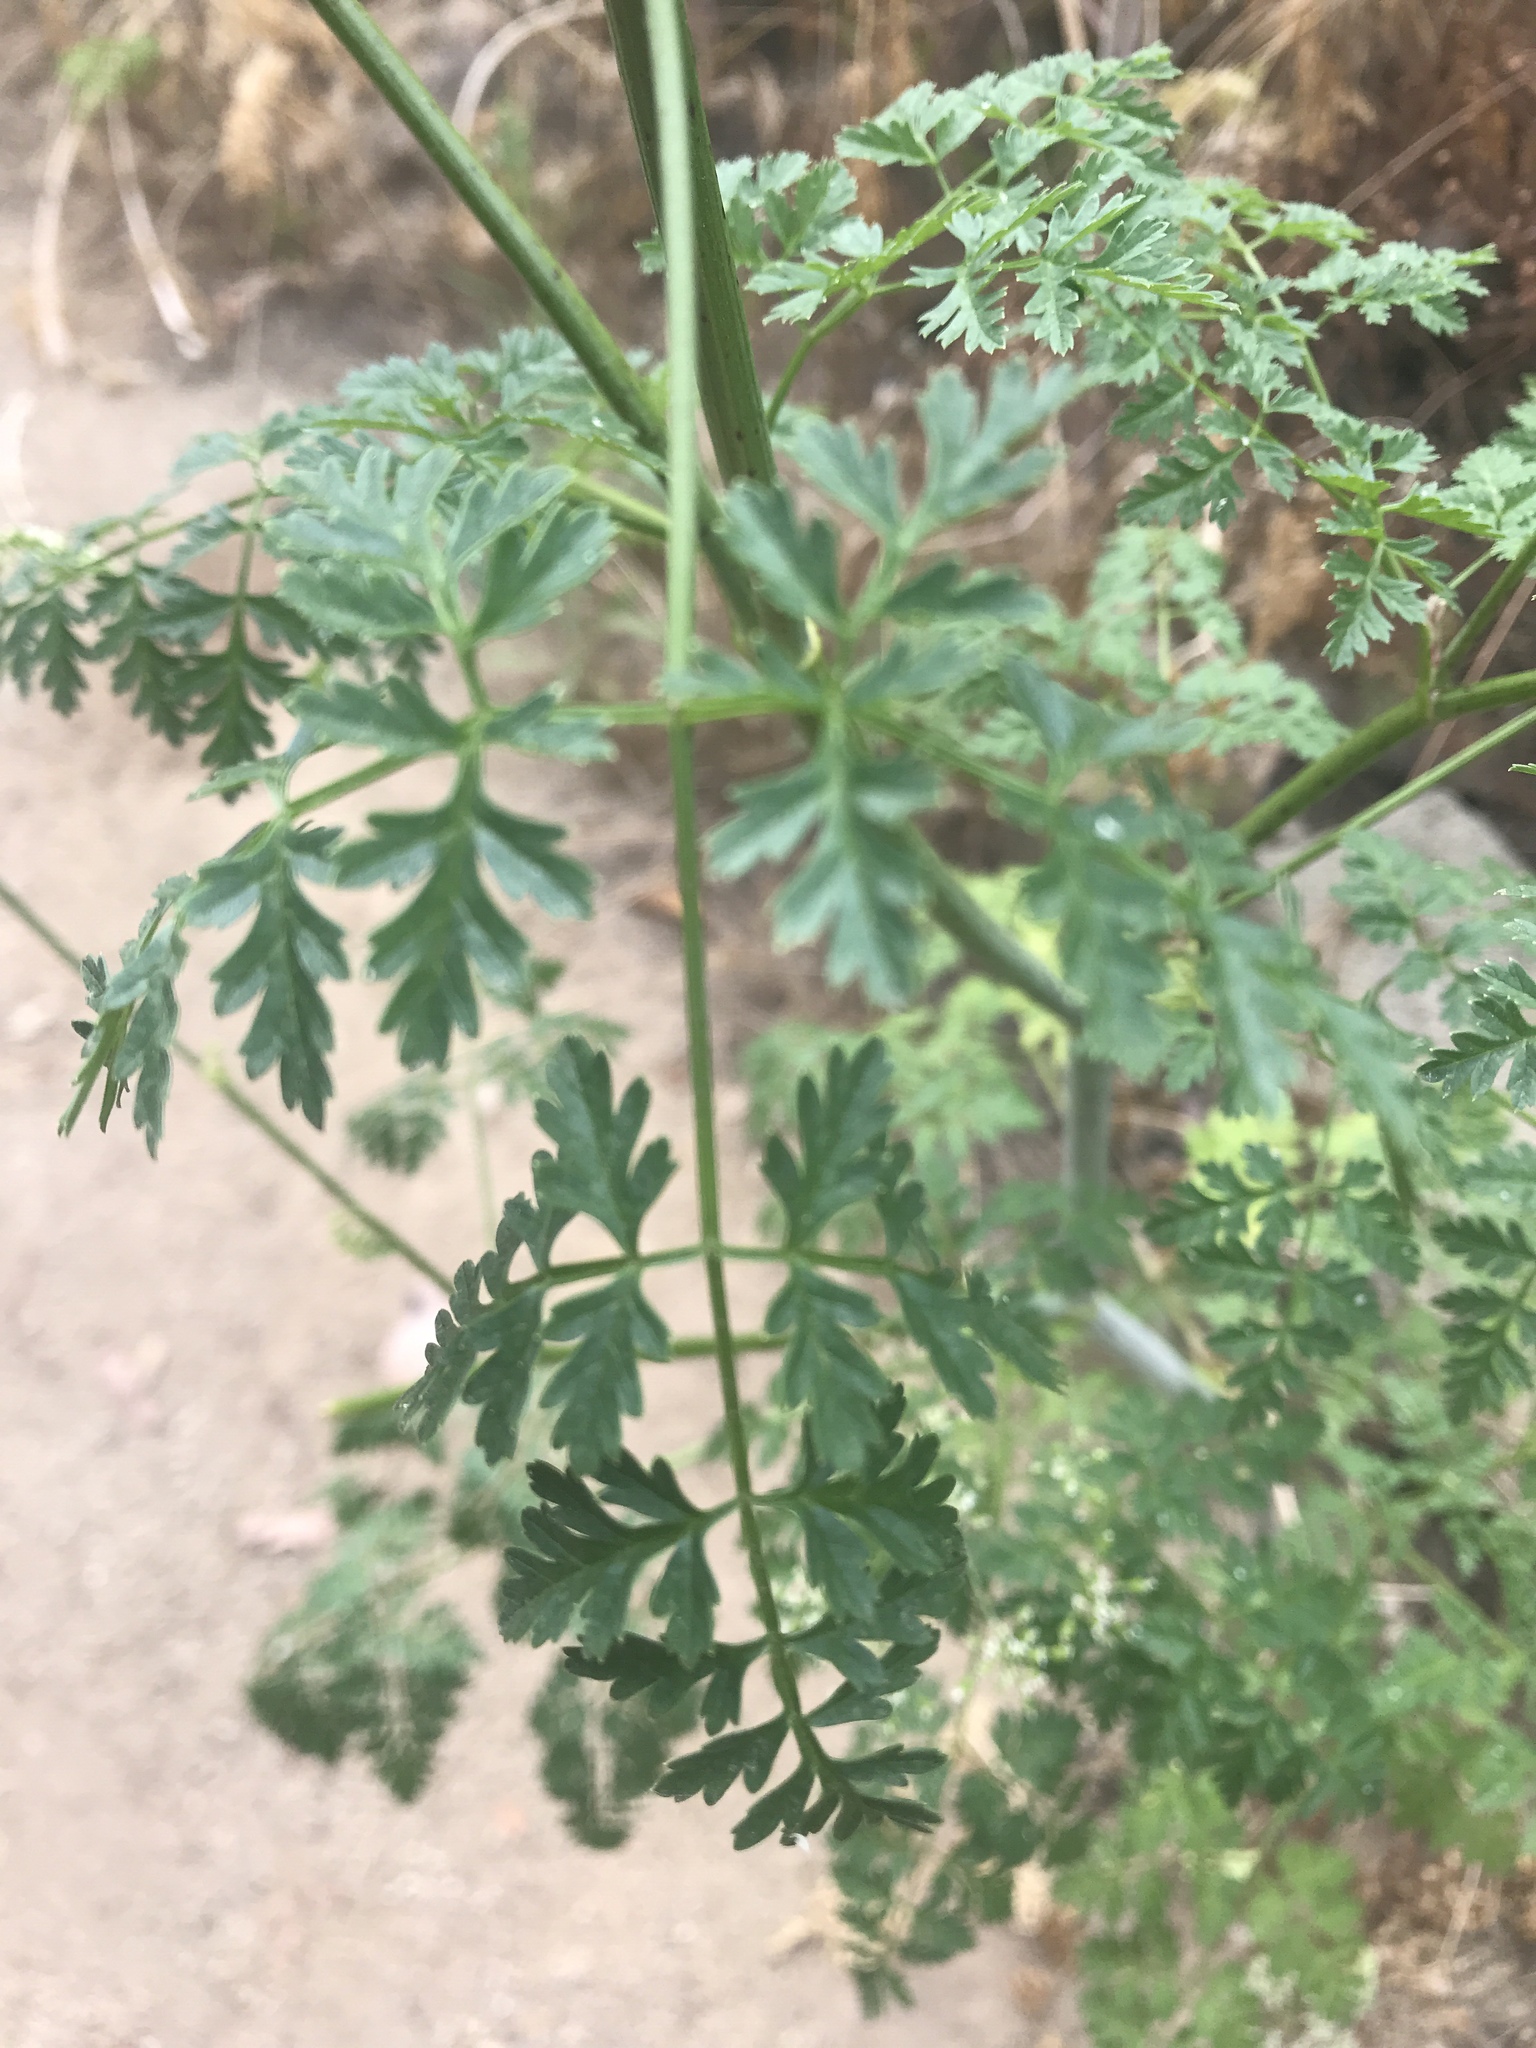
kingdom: Plantae
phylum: Tracheophyta
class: Magnoliopsida
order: Apiales
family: Apiaceae
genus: Conium
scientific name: Conium maculatum
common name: Hemlock
